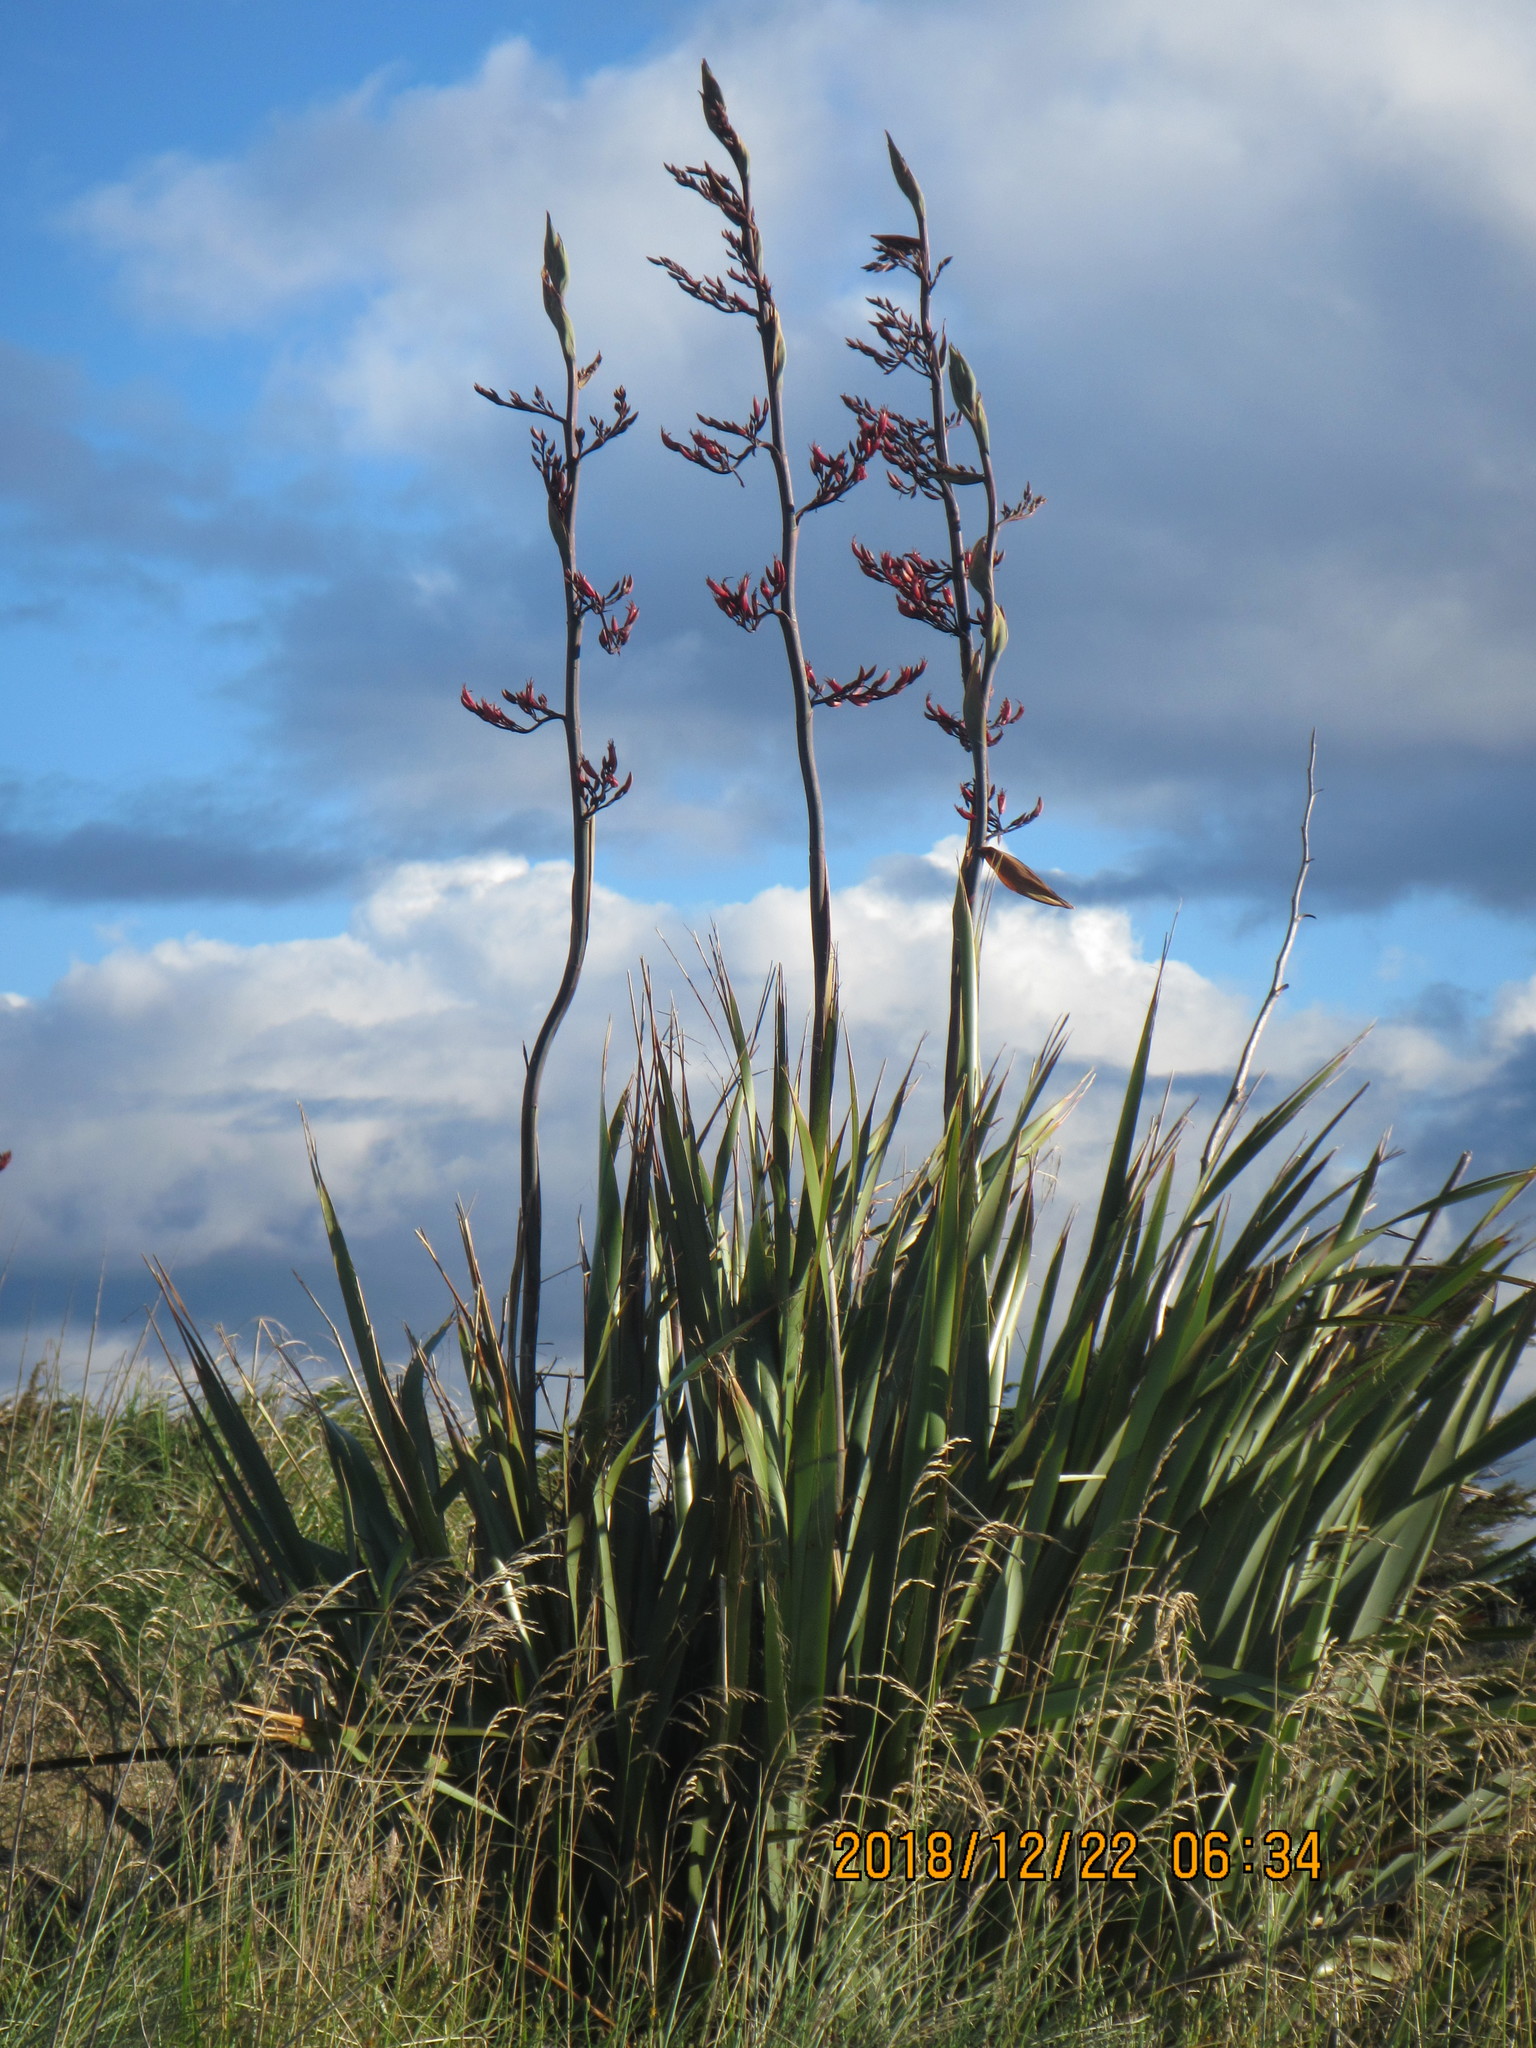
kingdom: Plantae
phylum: Tracheophyta
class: Liliopsida
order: Asparagales
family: Asphodelaceae
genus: Phormium
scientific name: Phormium tenax
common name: New zealand flax
